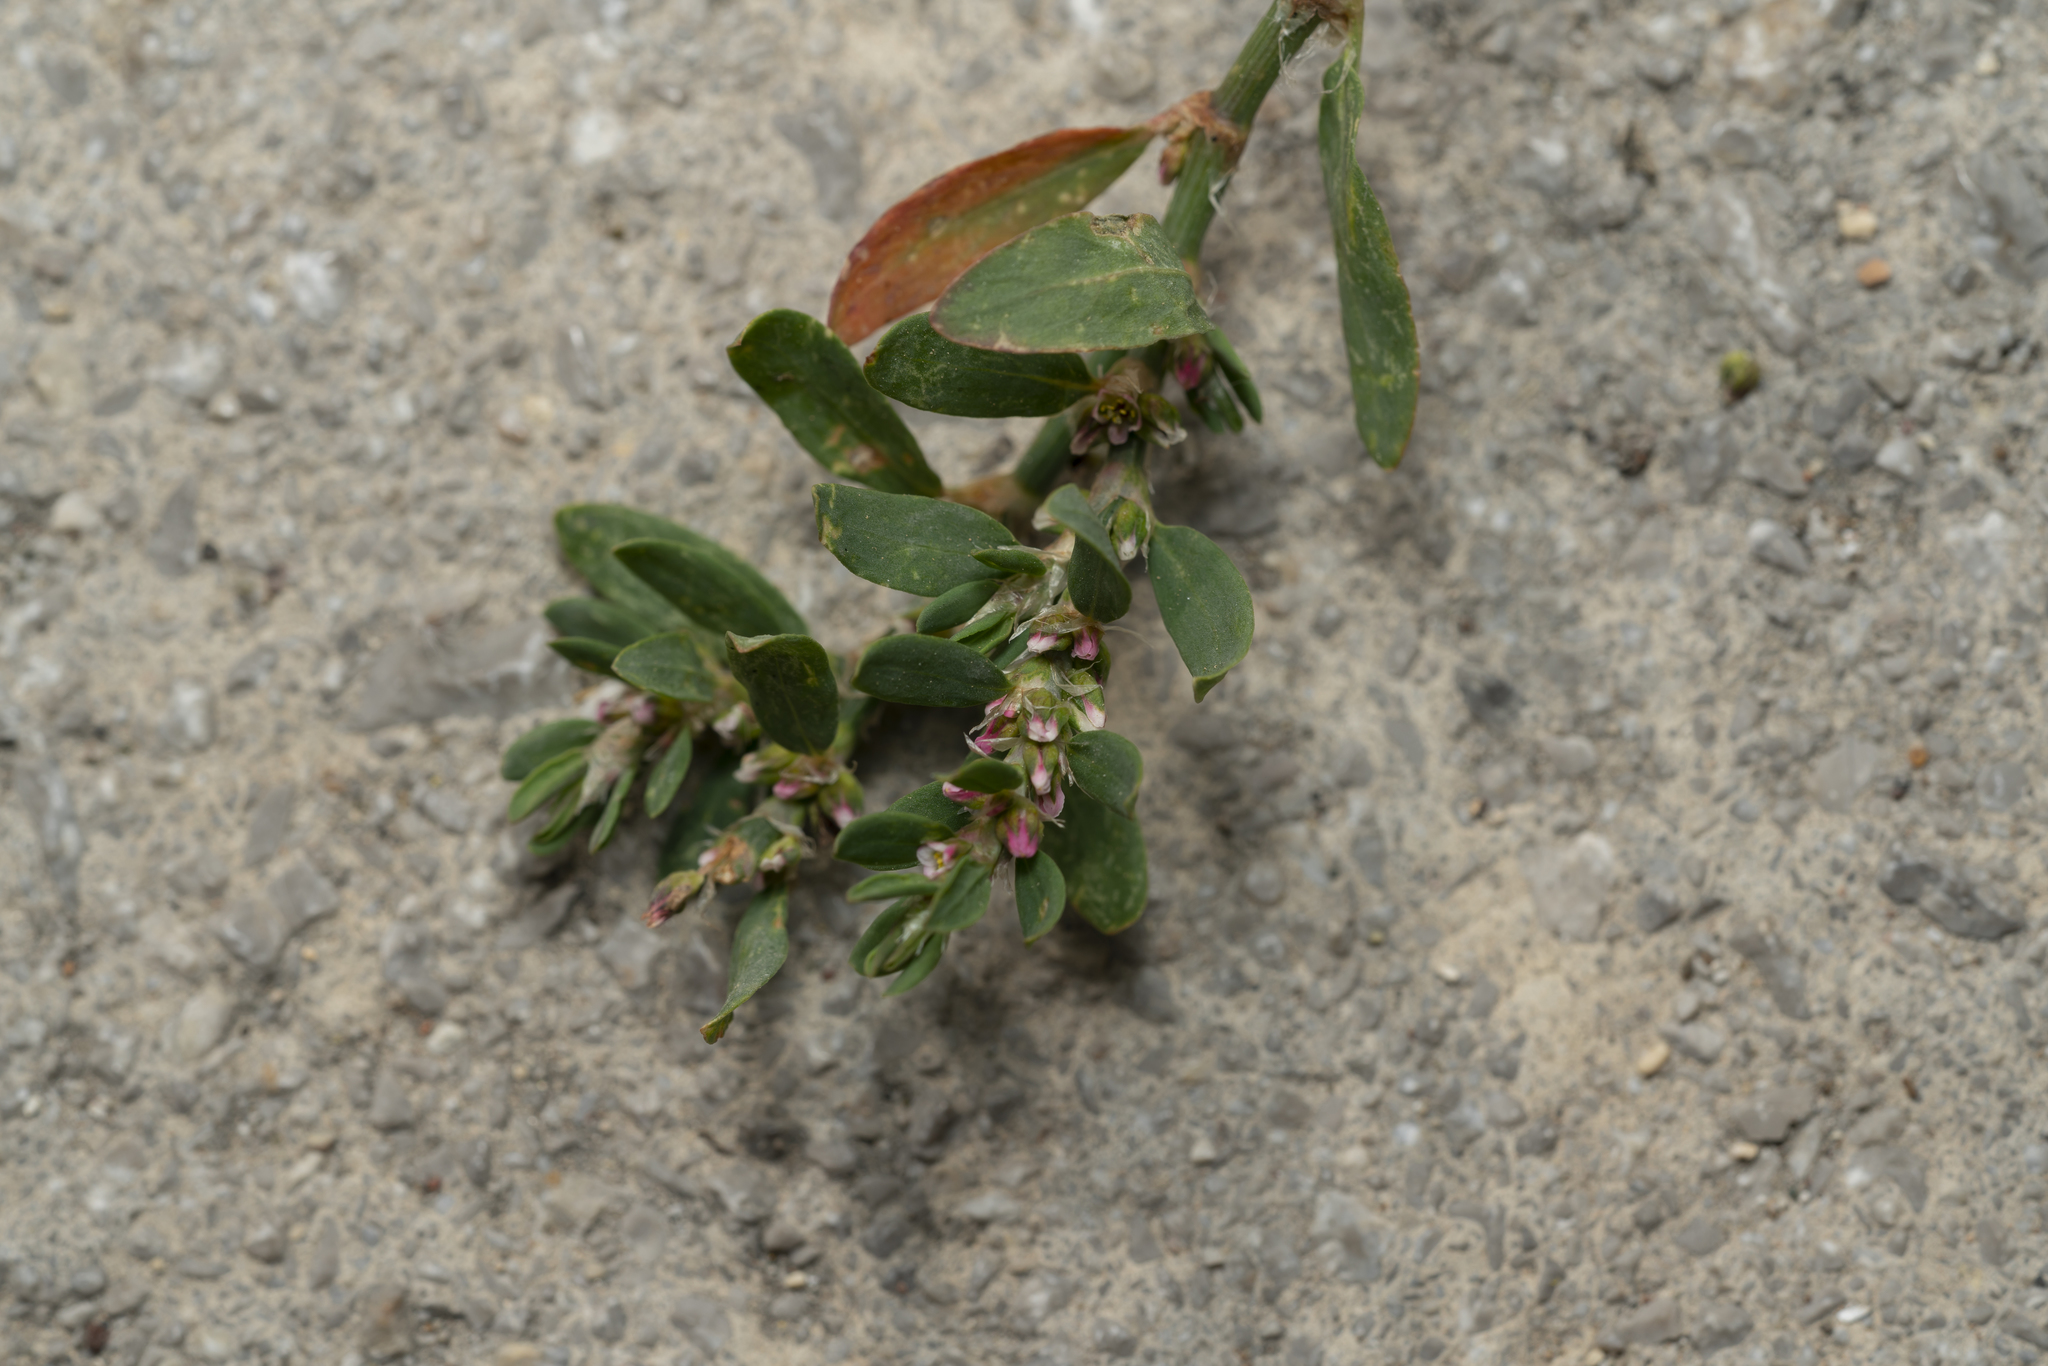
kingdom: Plantae
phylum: Tracheophyta
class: Magnoliopsida
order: Caryophyllales
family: Polygonaceae
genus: Polygonum
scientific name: Polygonum aviculare
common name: Prostrate knotweed
